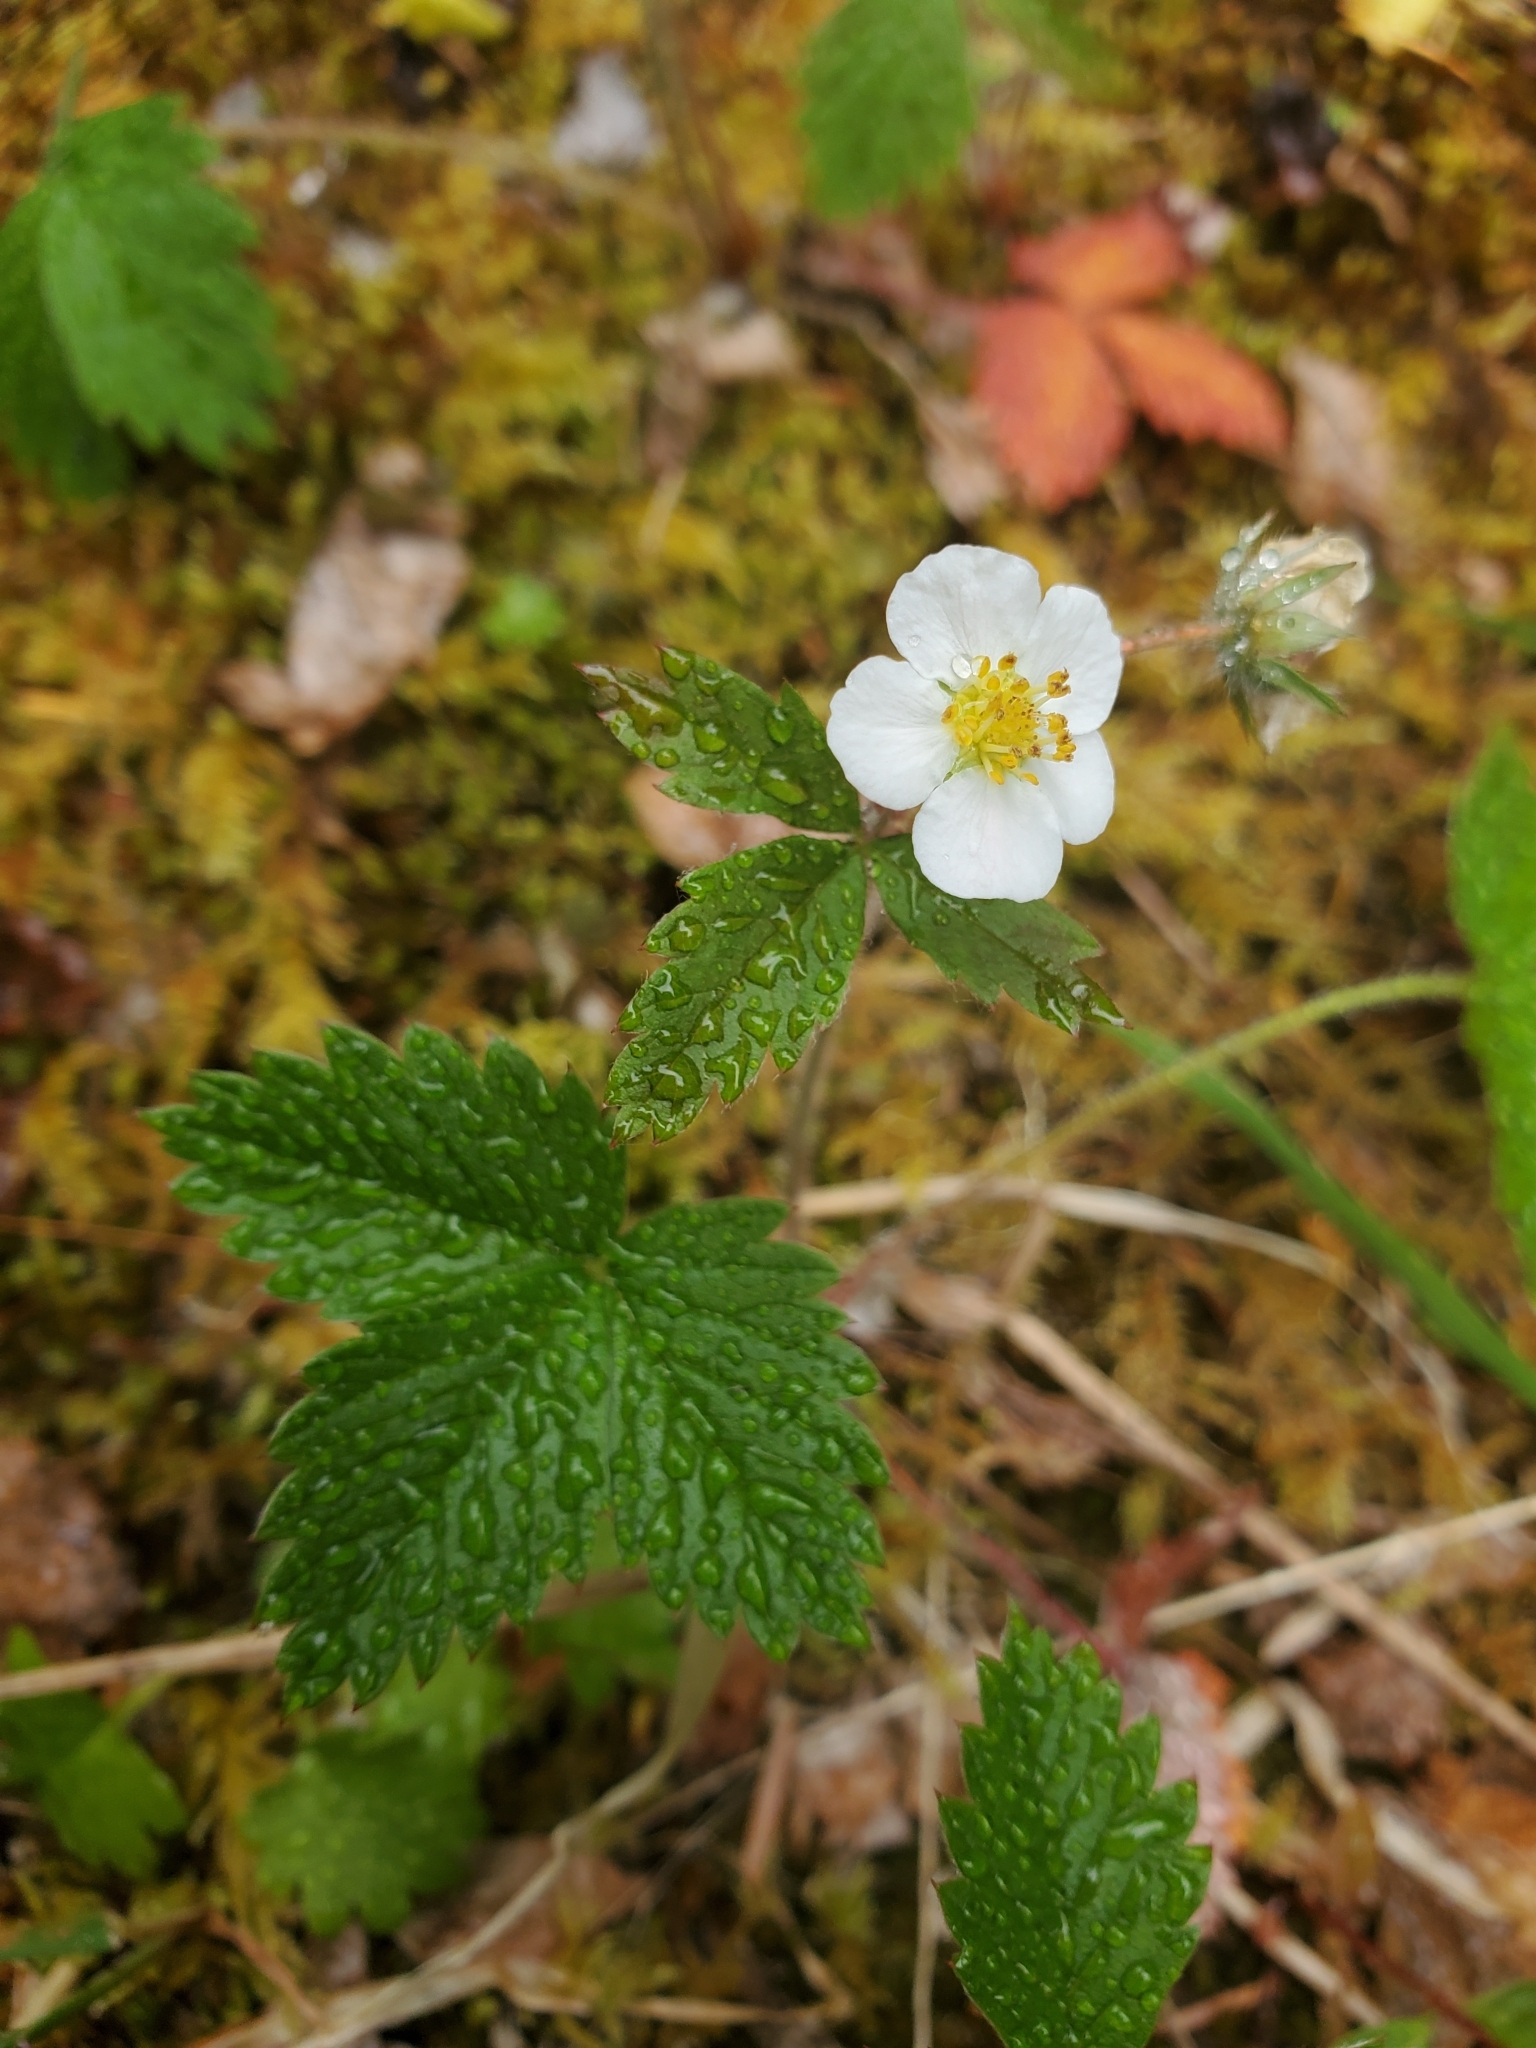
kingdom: Plantae
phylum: Tracheophyta
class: Magnoliopsida
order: Rosales
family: Rosaceae
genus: Fragaria
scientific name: Fragaria vesca
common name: Wild strawberry
